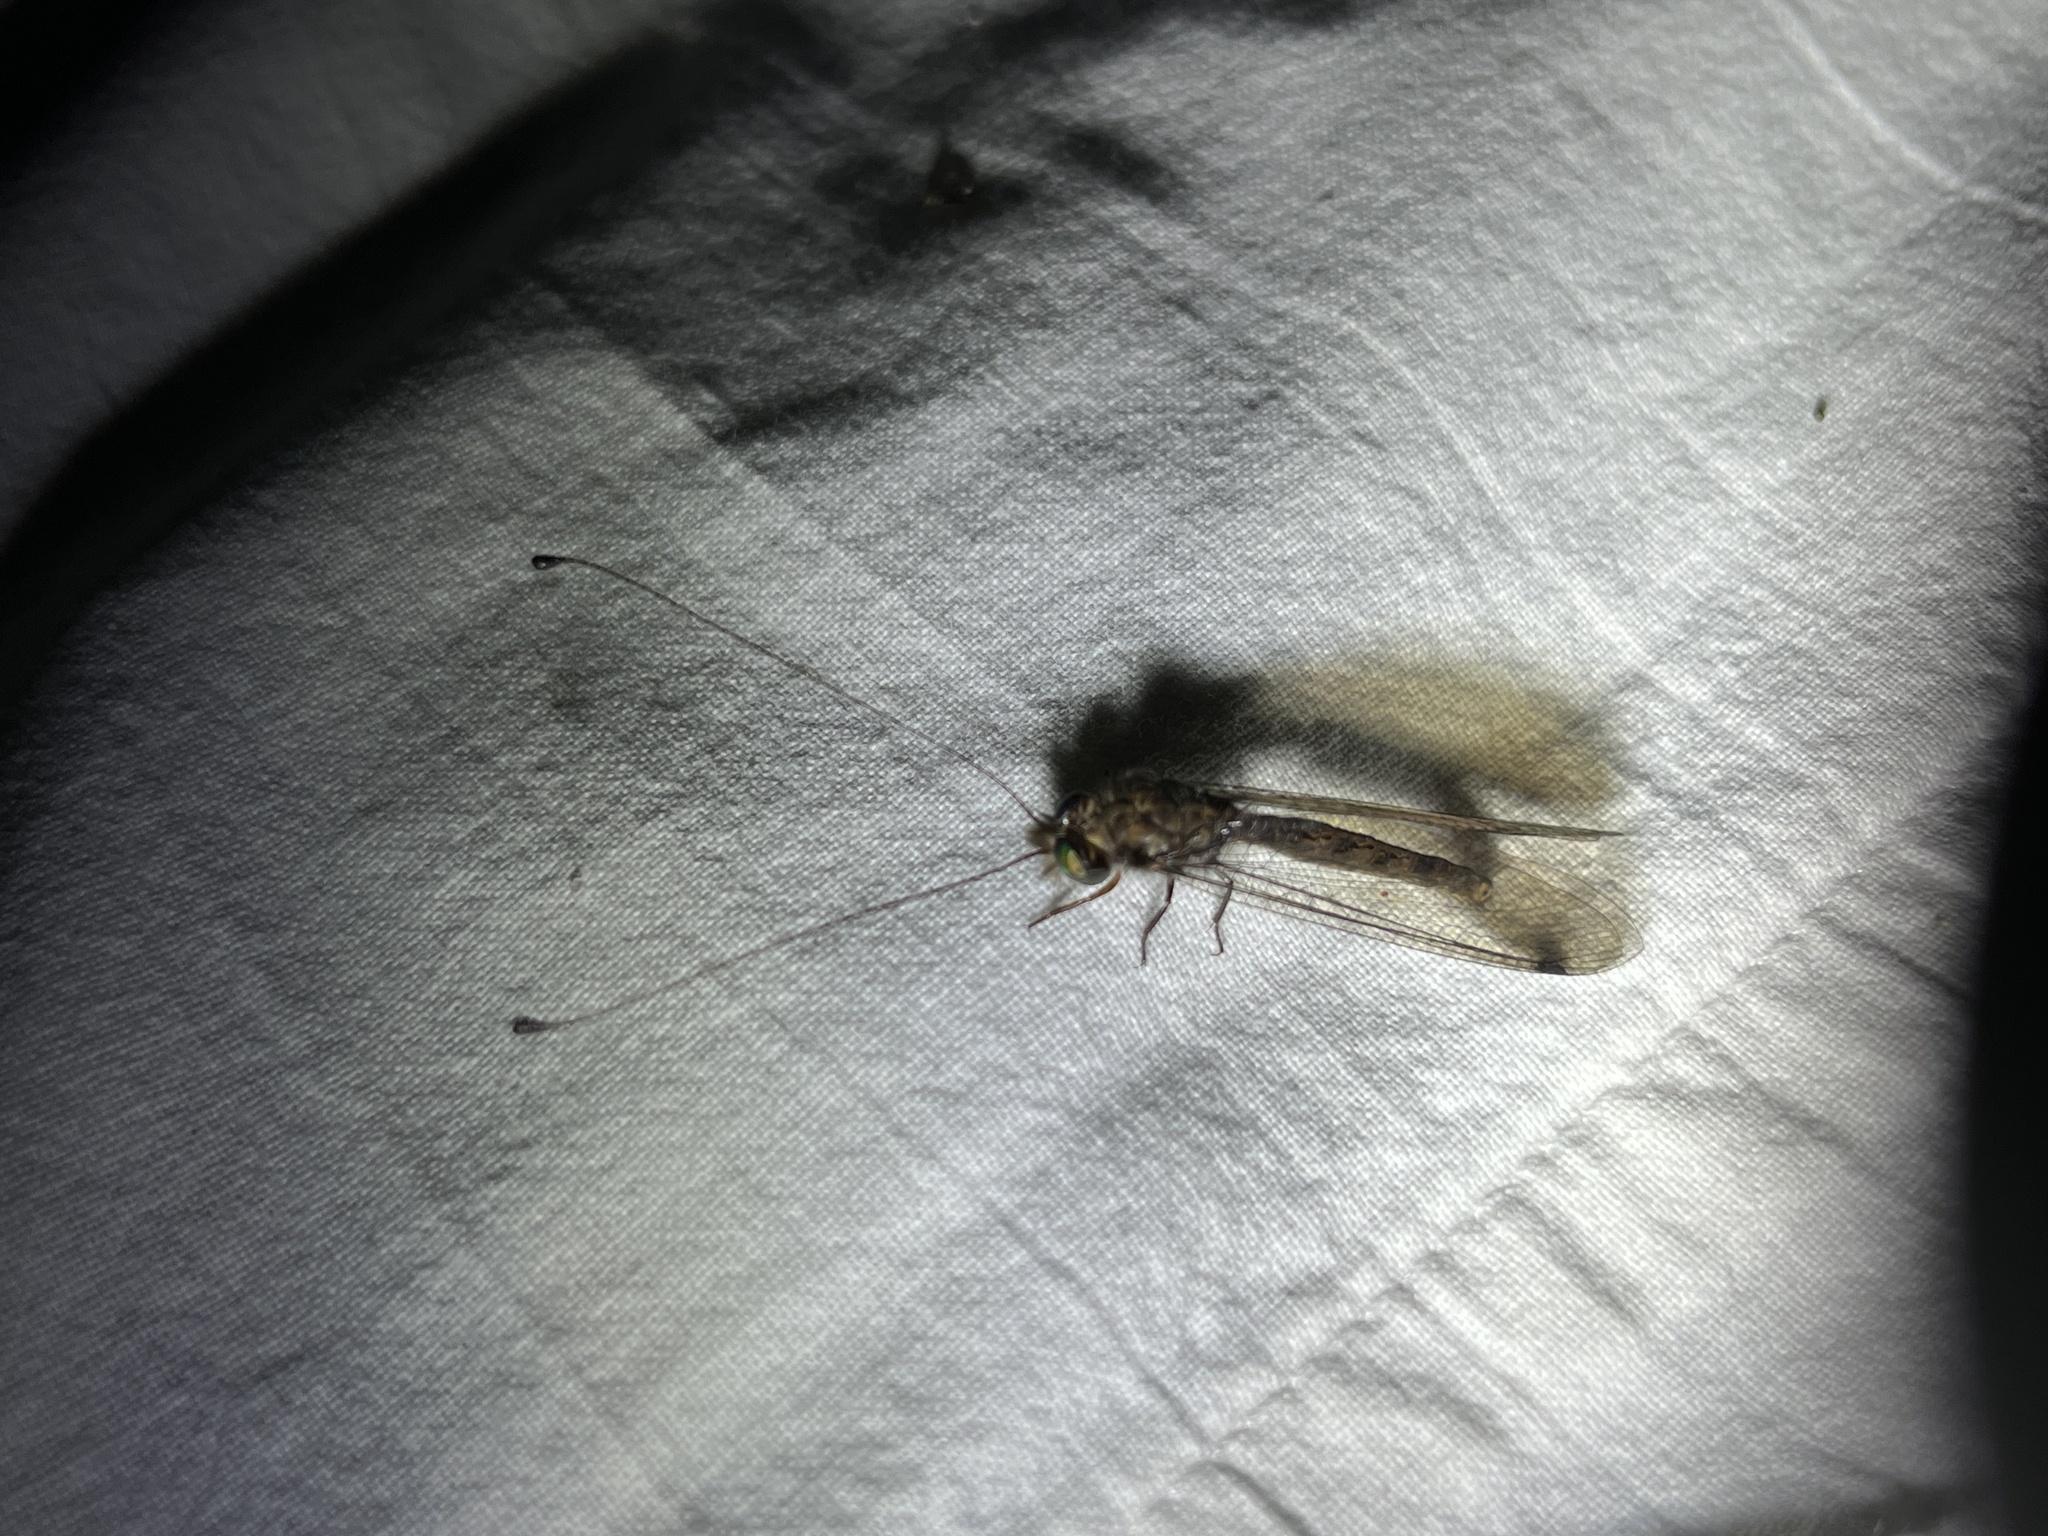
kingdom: Animalia
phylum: Arthropoda
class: Insecta
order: Neuroptera
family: Ascalaphidae
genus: Ululodes
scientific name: Ululodes macleayanus
